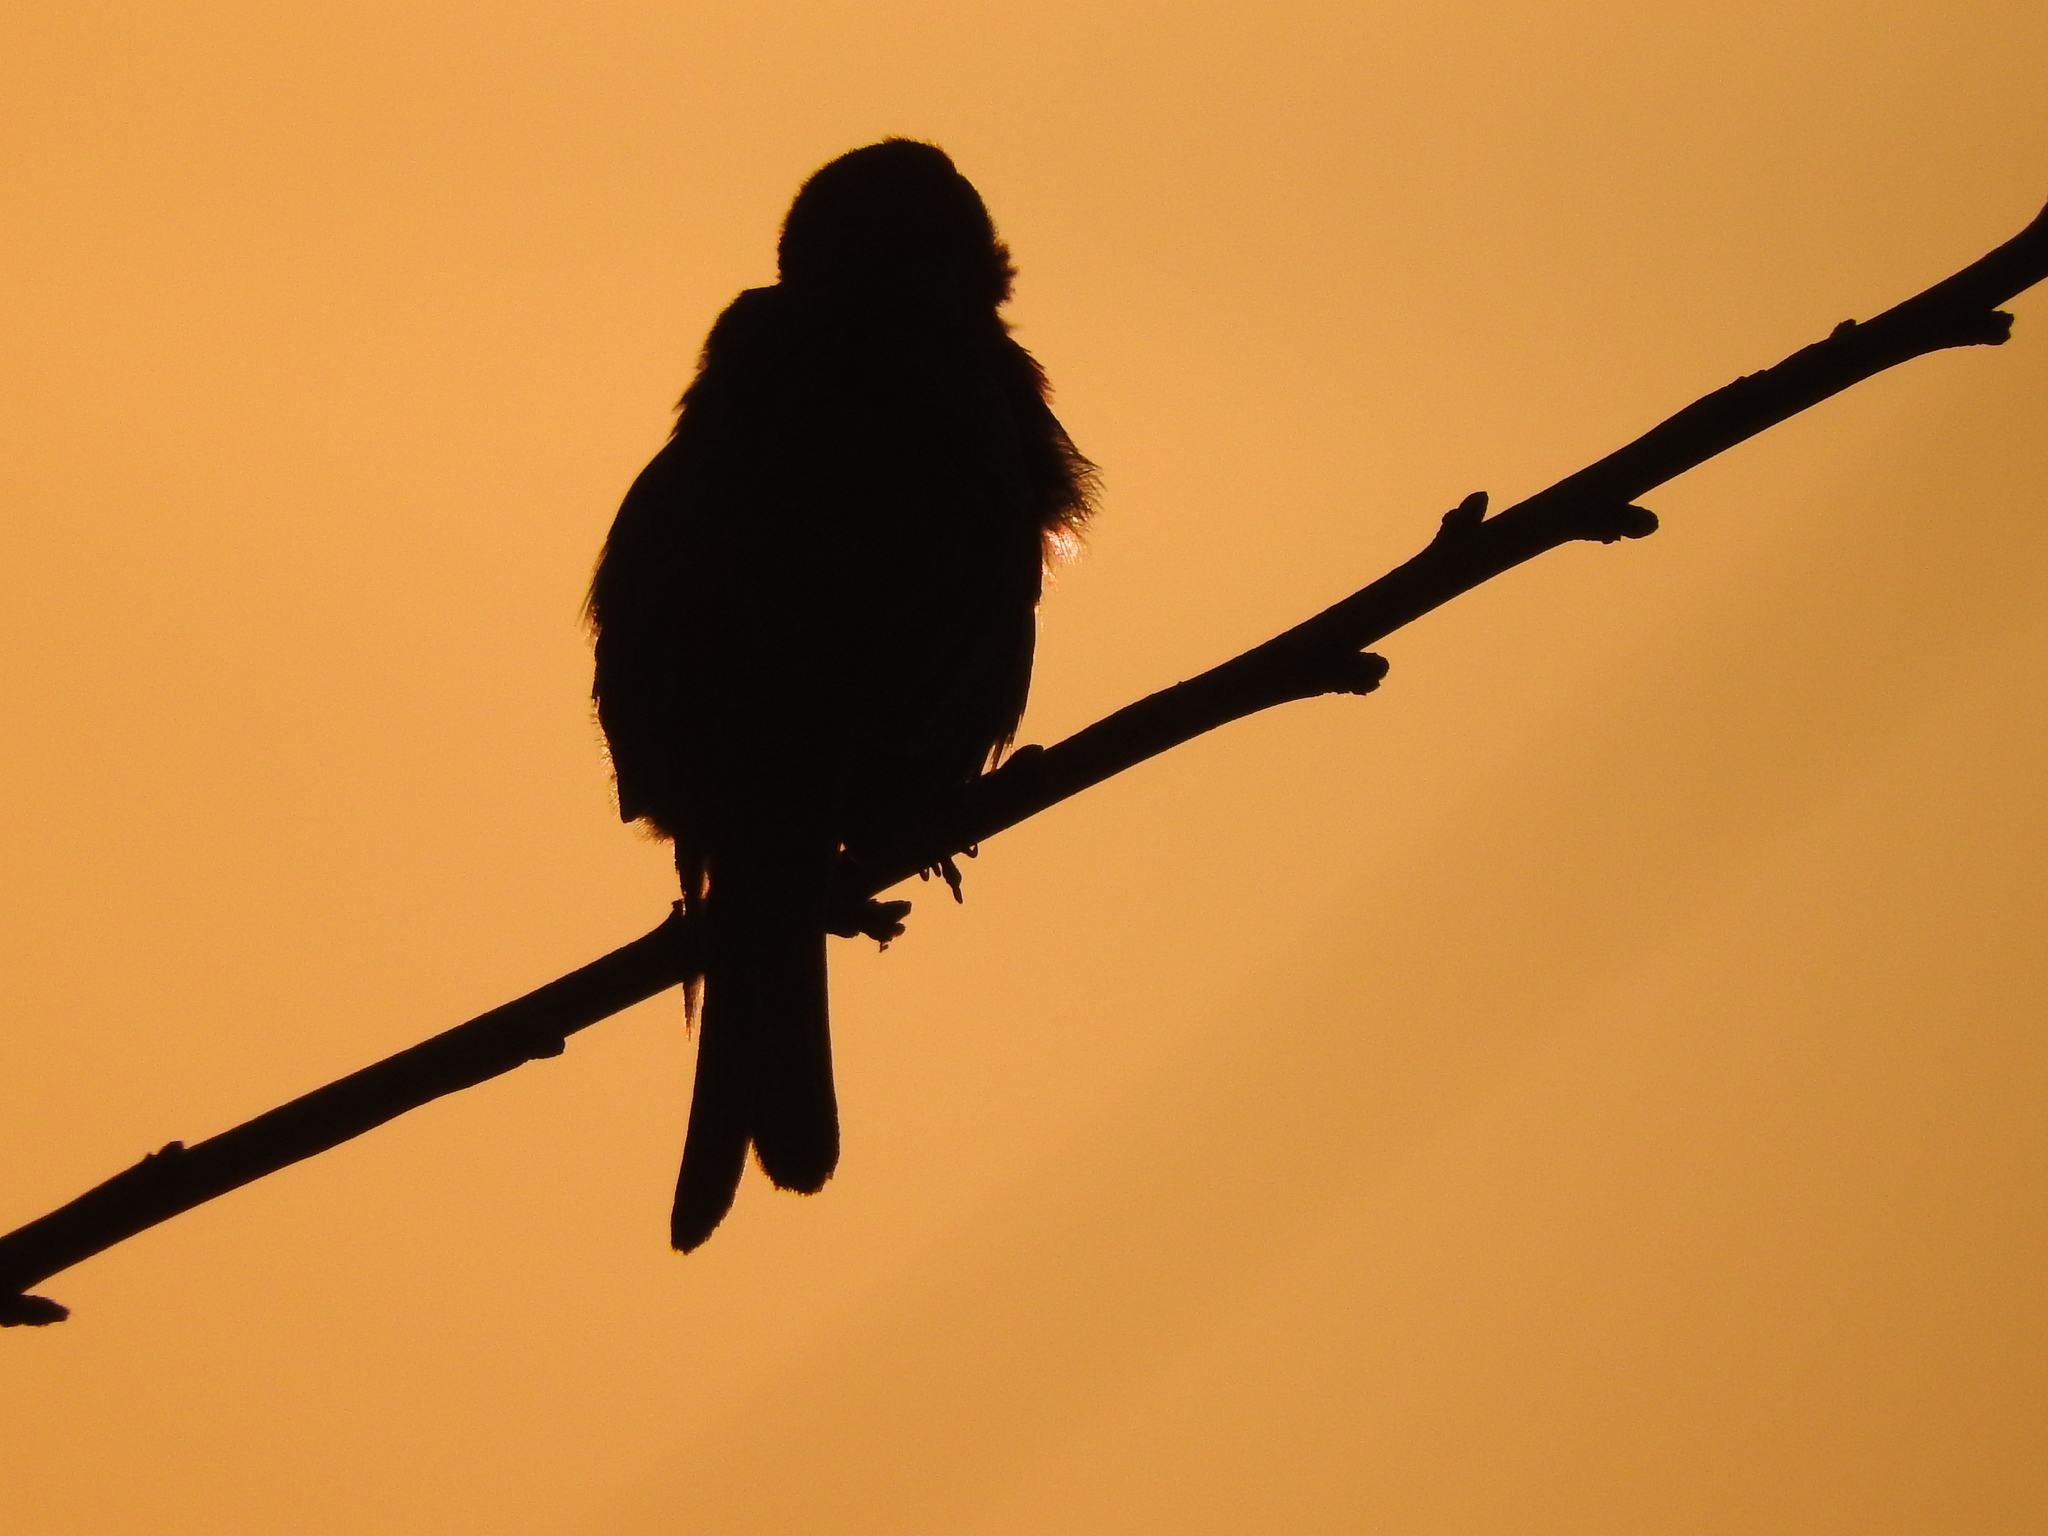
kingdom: Animalia
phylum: Chordata
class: Aves
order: Passeriformes
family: Fringillidae
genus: Haemorhous
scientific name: Haemorhous mexicanus
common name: House finch
